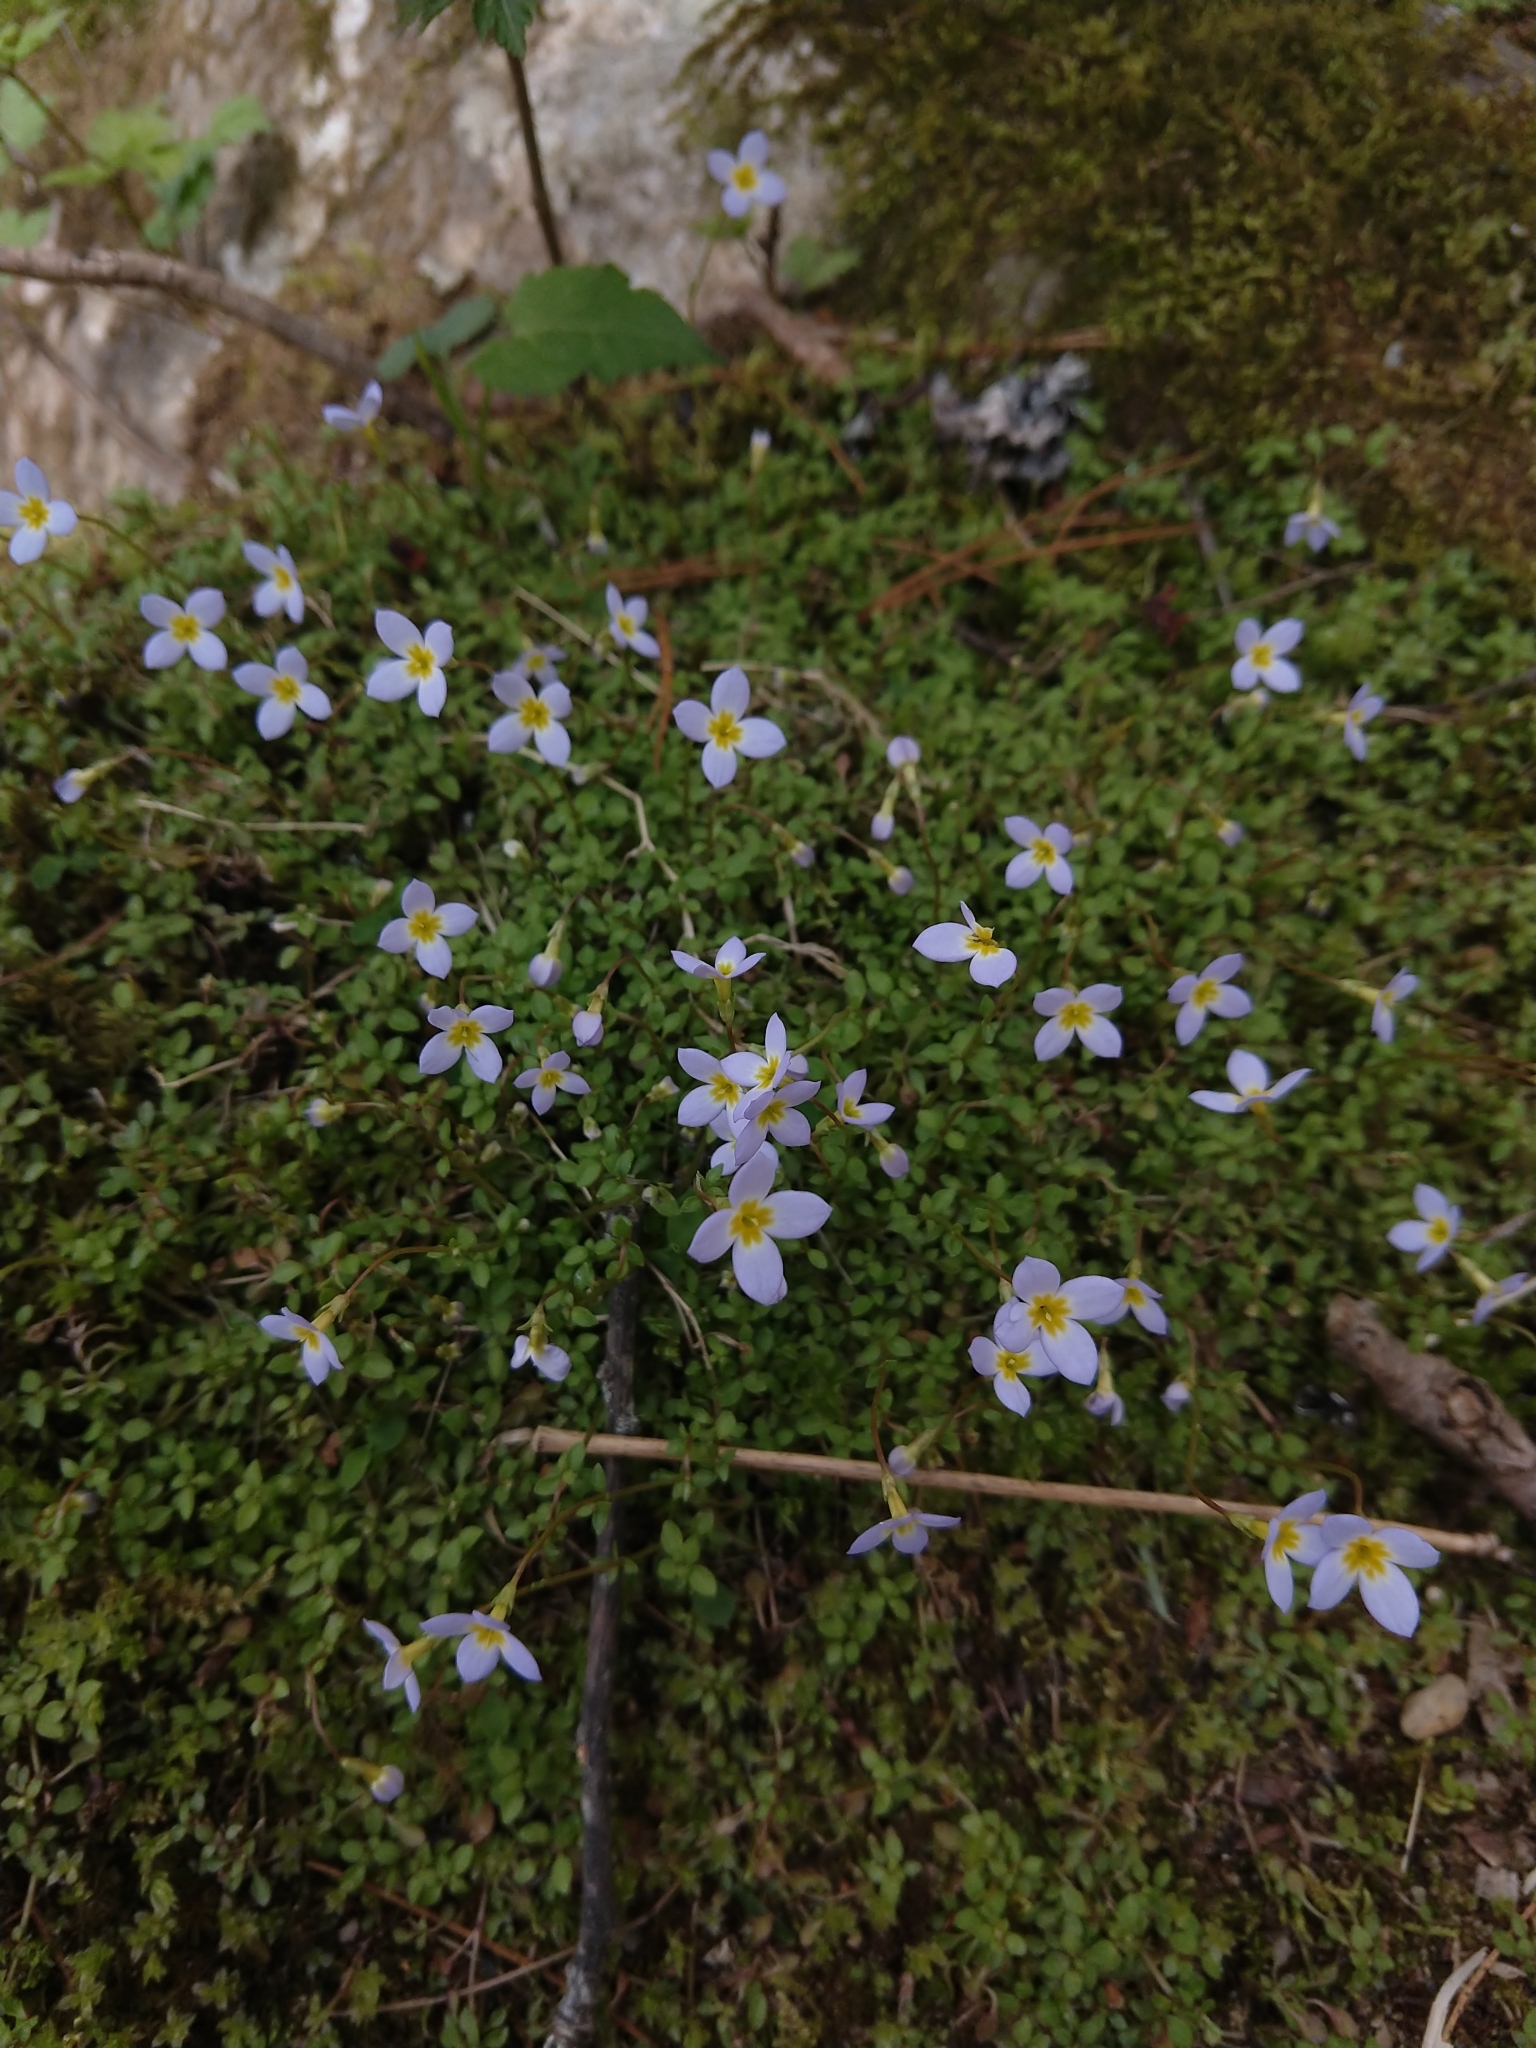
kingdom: Plantae
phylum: Tracheophyta
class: Magnoliopsida
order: Gentianales
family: Rubiaceae
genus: Houstonia
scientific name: Houstonia serpyllifolia
